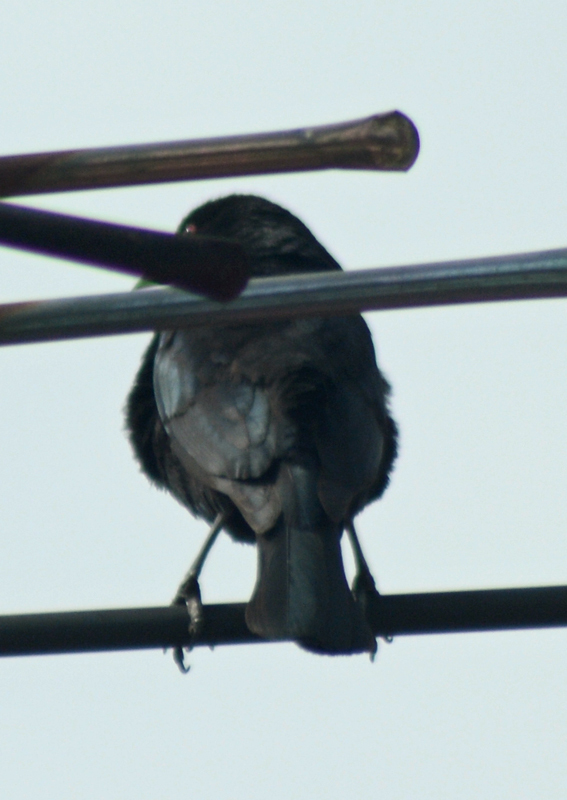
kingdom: Animalia
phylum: Chordata
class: Aves
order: Passeriformes
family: Icteridae
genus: Molothrus
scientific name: Molothrus aeneus
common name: Bronzed cowbird
